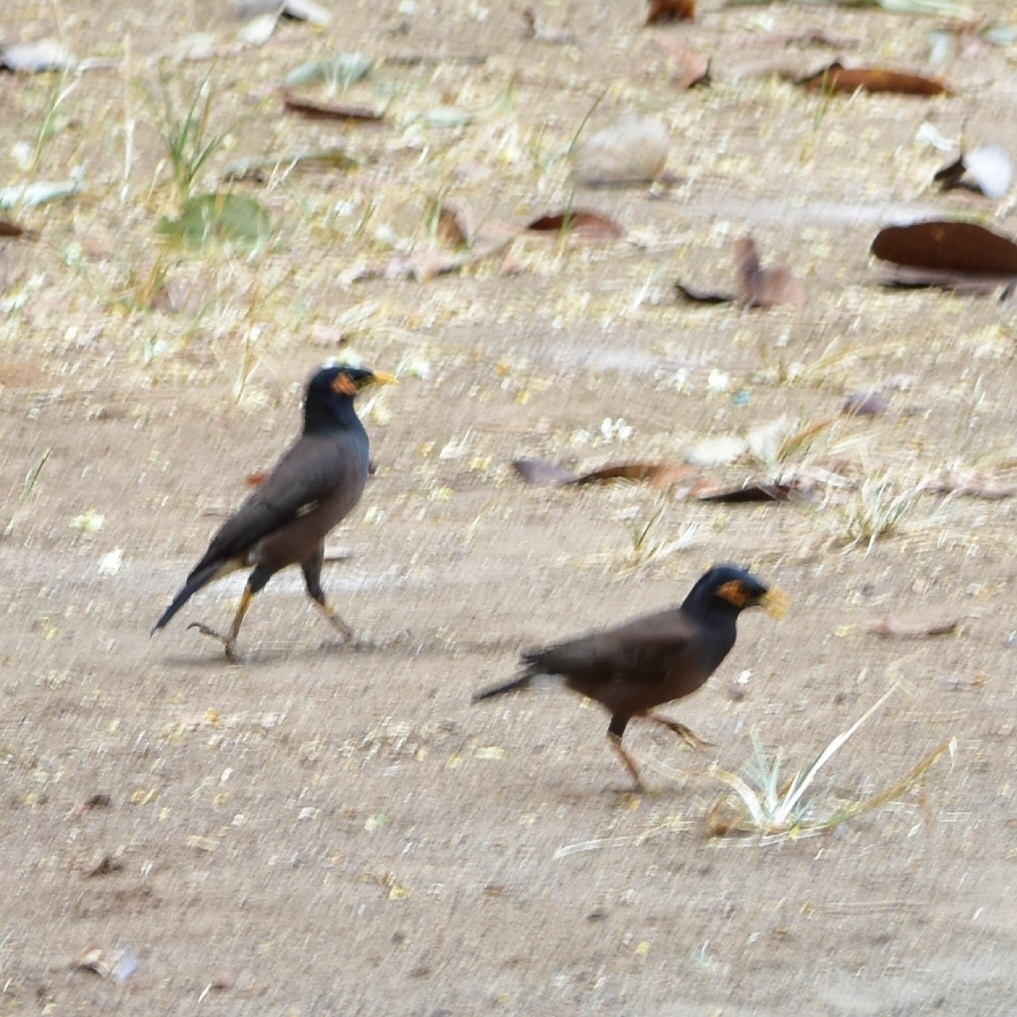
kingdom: Animalia
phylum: Chordata
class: Aves
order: Passeriformes
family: Sturnidae
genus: Acridotheres
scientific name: Acridotheres tristis
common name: Common myna
